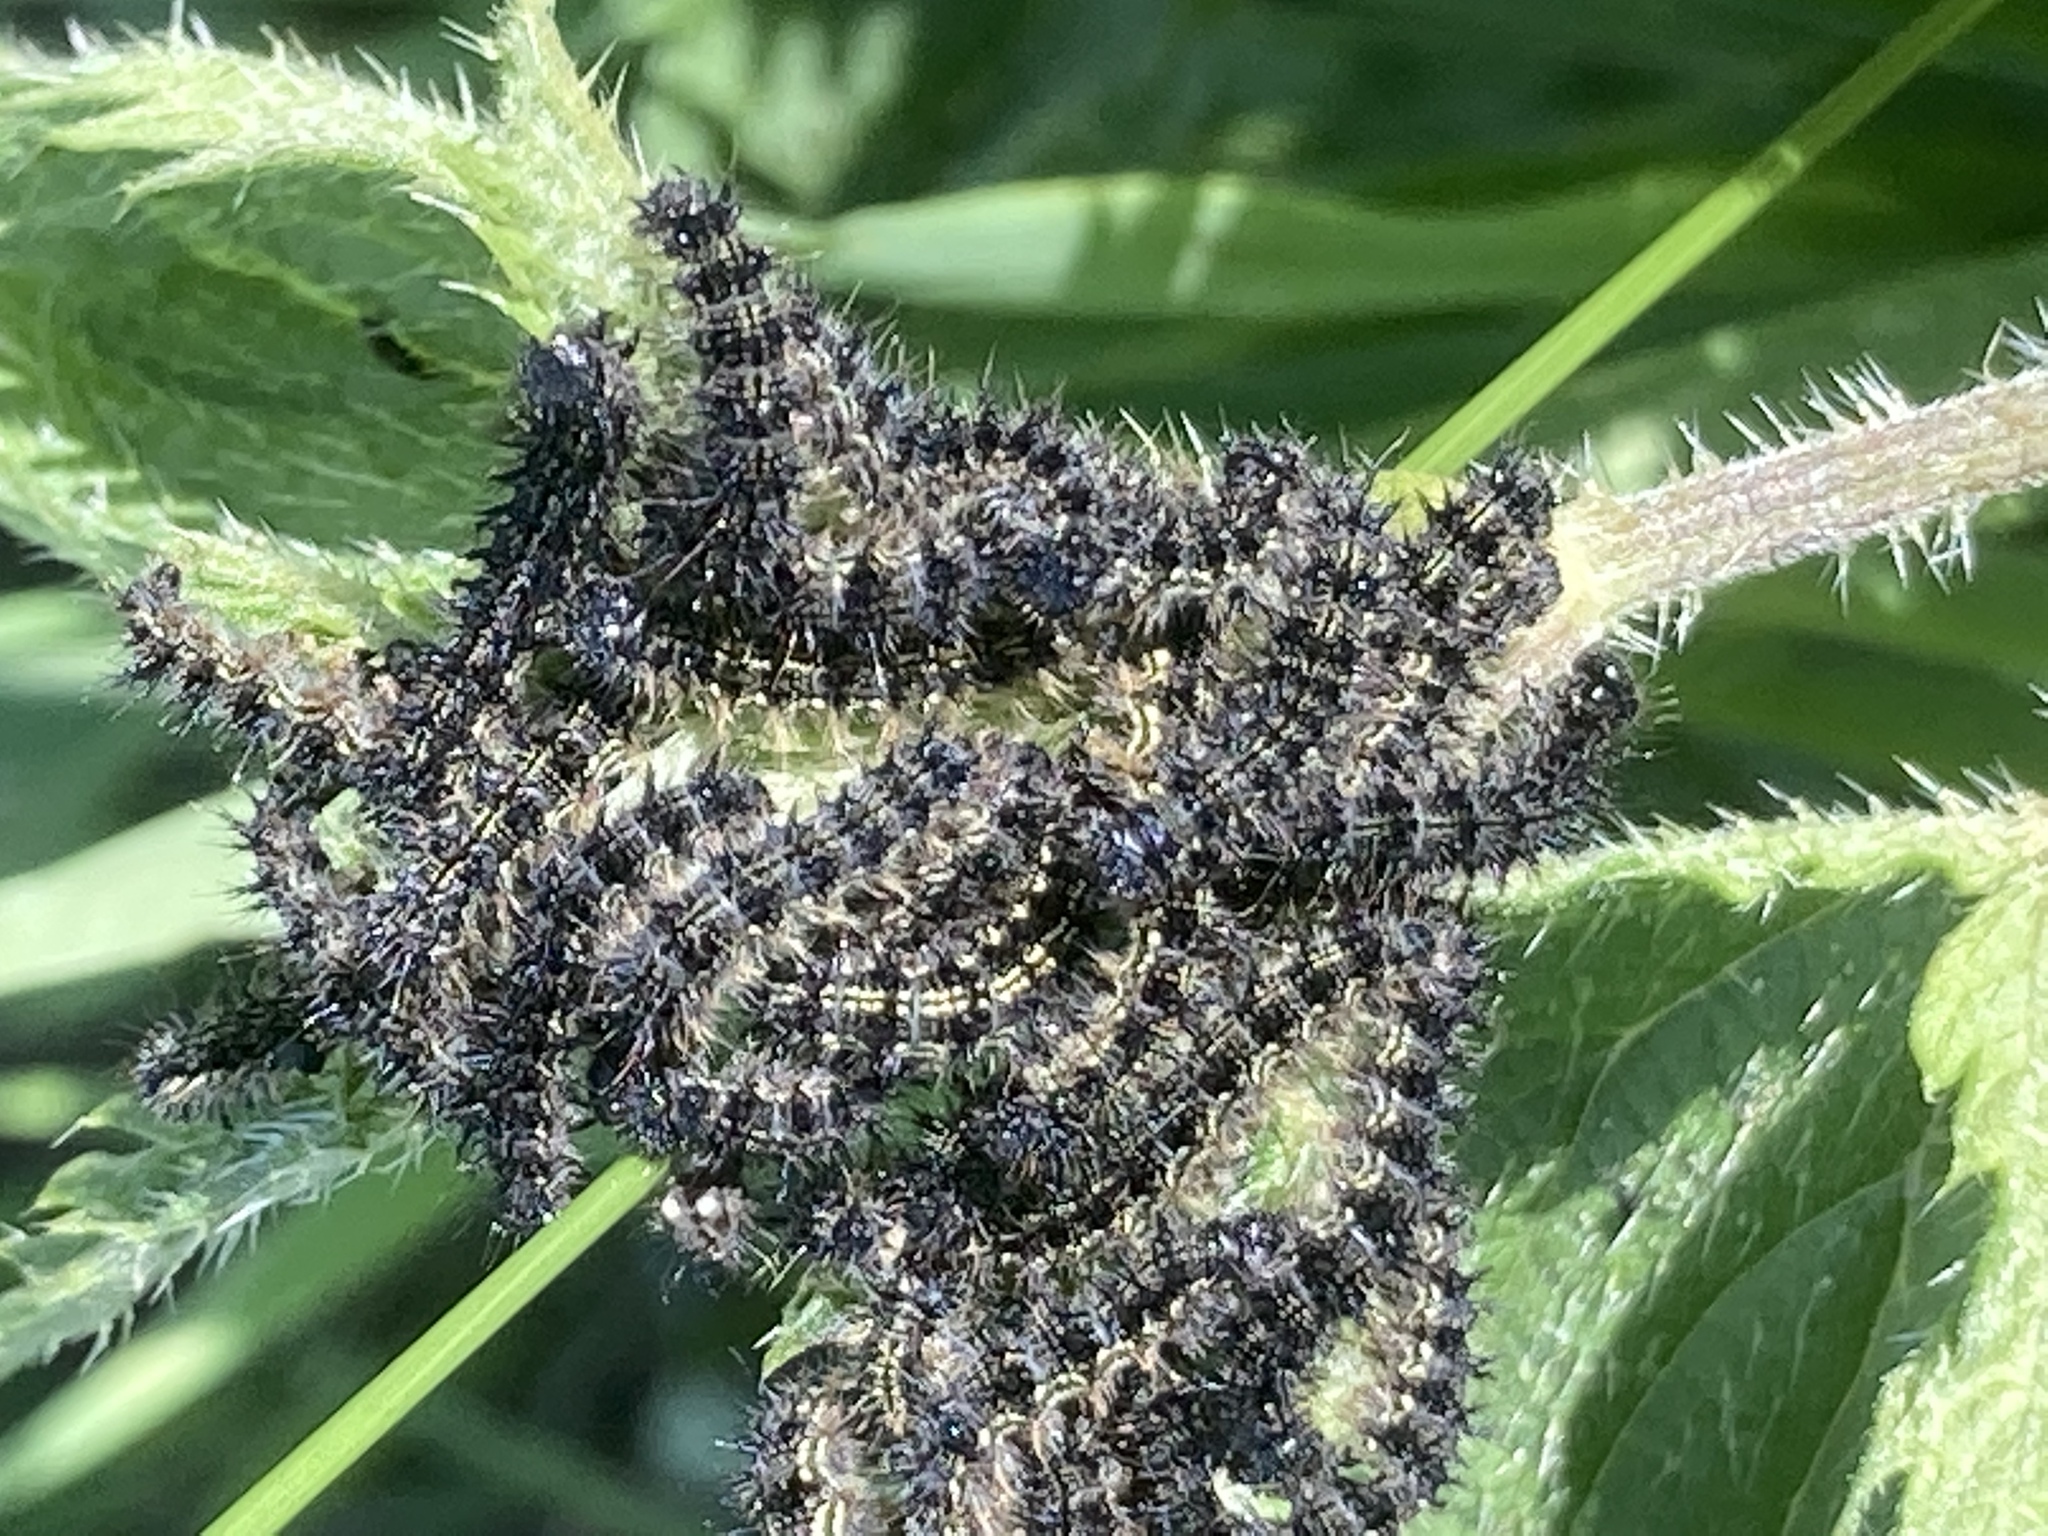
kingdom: Animalia
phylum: Arthropoda
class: Insecta
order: Lepidoptera
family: Nymphalidae
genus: Aglais
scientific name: Aglais urticae
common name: Small tortoiseshell
